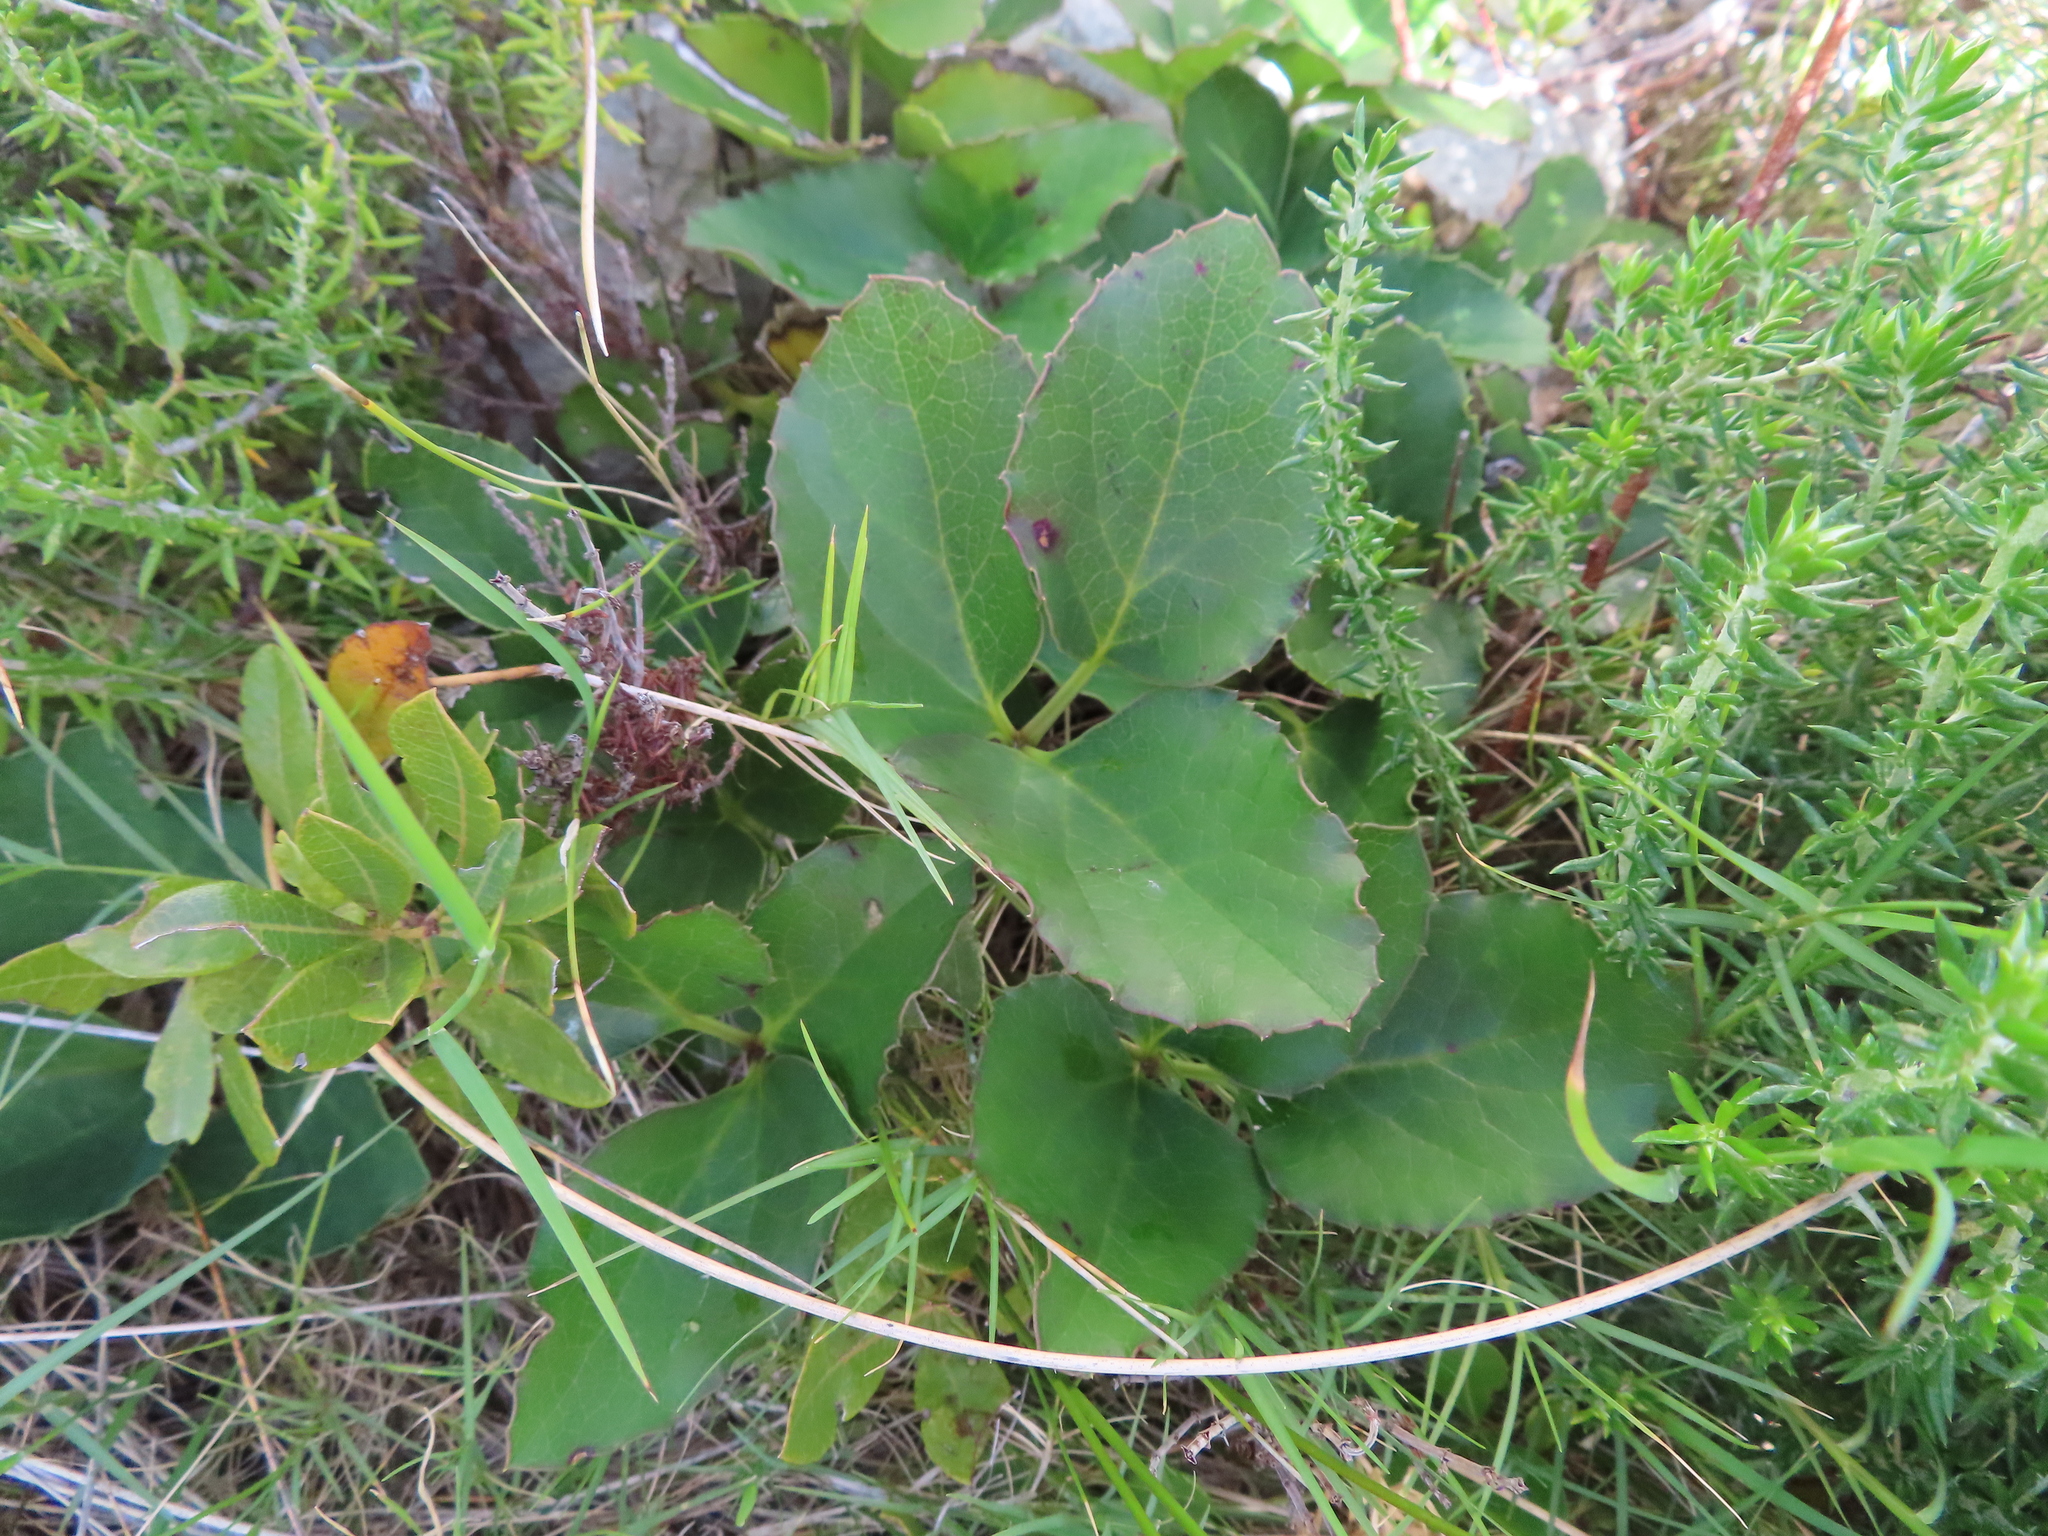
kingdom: Plantae
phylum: Tracheophyta
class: Magnoliopsida
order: Ranunculales
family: Ranunculaceae
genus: Knowltonia
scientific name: Knowltonia vesicatoria
